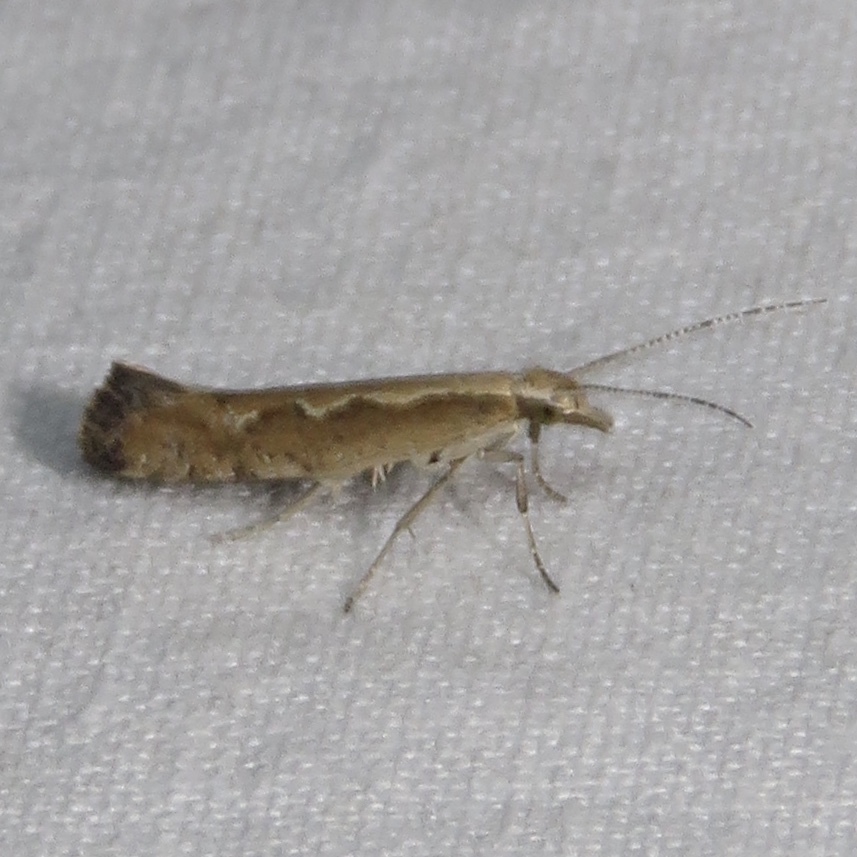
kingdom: Animalia
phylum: Arthropoda
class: Insecta
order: Lepidoptera
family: Plutellidae
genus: Plutella
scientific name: Plutella xylostella
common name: Diamond-back moth
